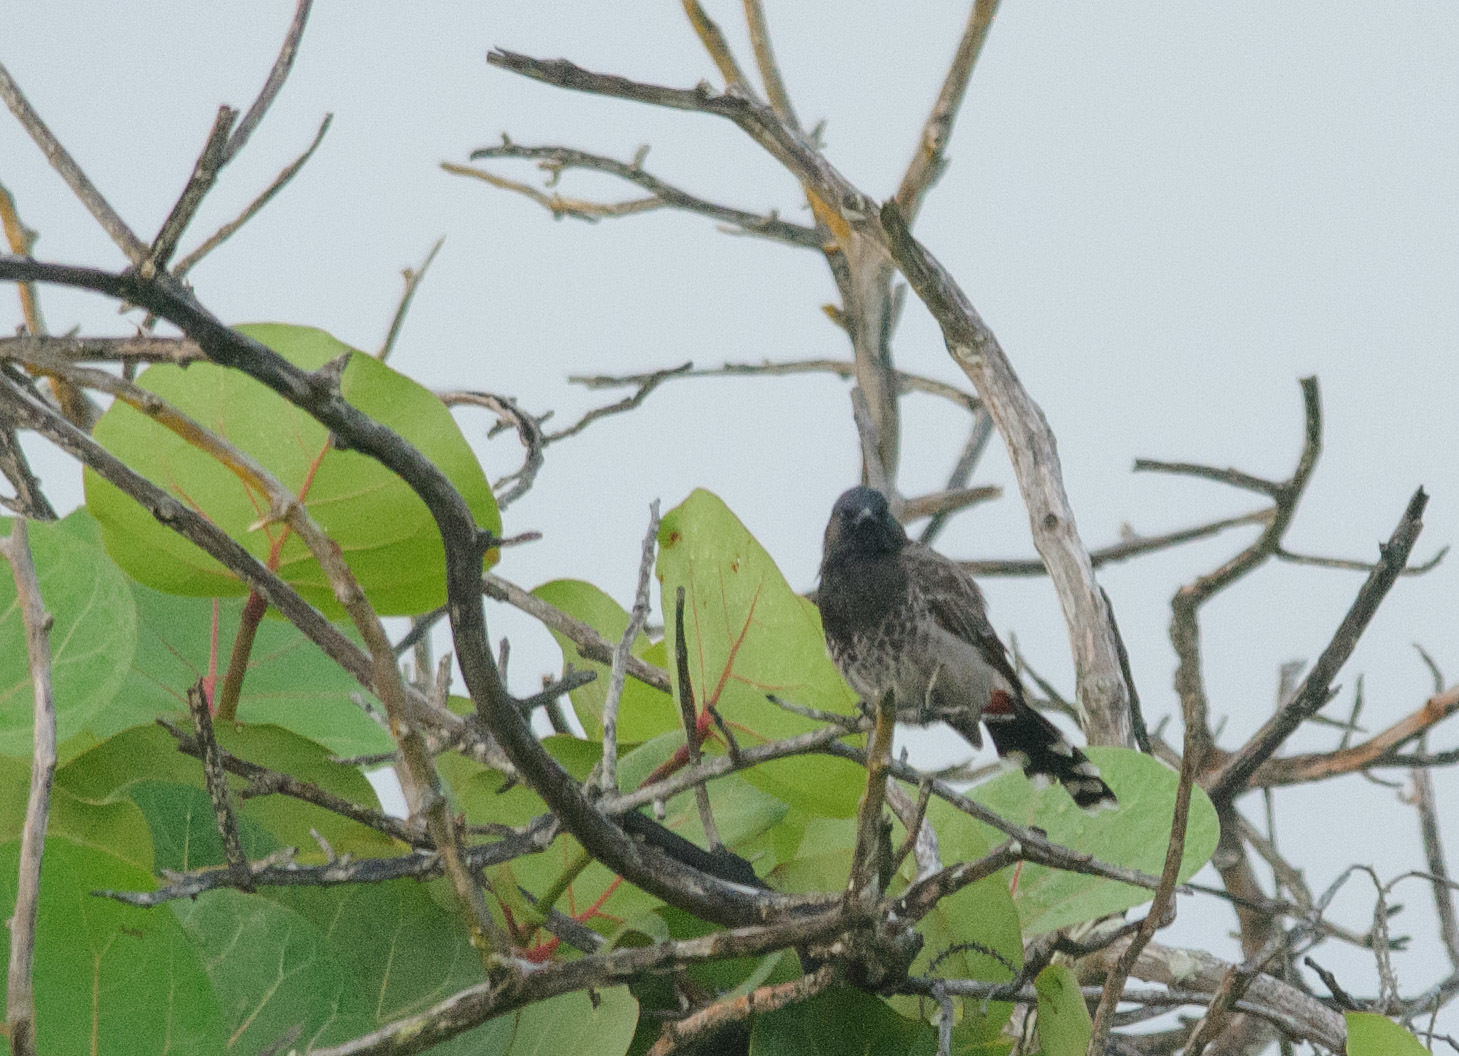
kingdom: Animalia
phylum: Chordata
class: Aves
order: Passeriformes
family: Pycnonotidae
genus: Pycnonotus
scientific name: Pycnonotus cafer
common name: Red-vented bulbul
